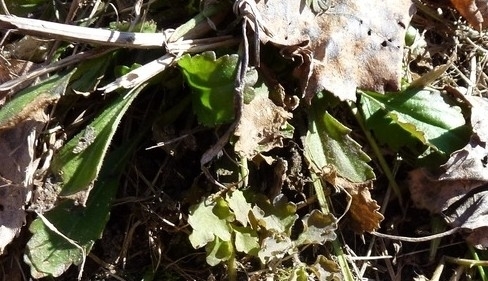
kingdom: Plantae
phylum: Tracheophyta
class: Magnoliopsida
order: Asterales
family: Asteraceae
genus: Leucanthemum
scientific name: Leucanthemum ircutianum
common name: Daisy
